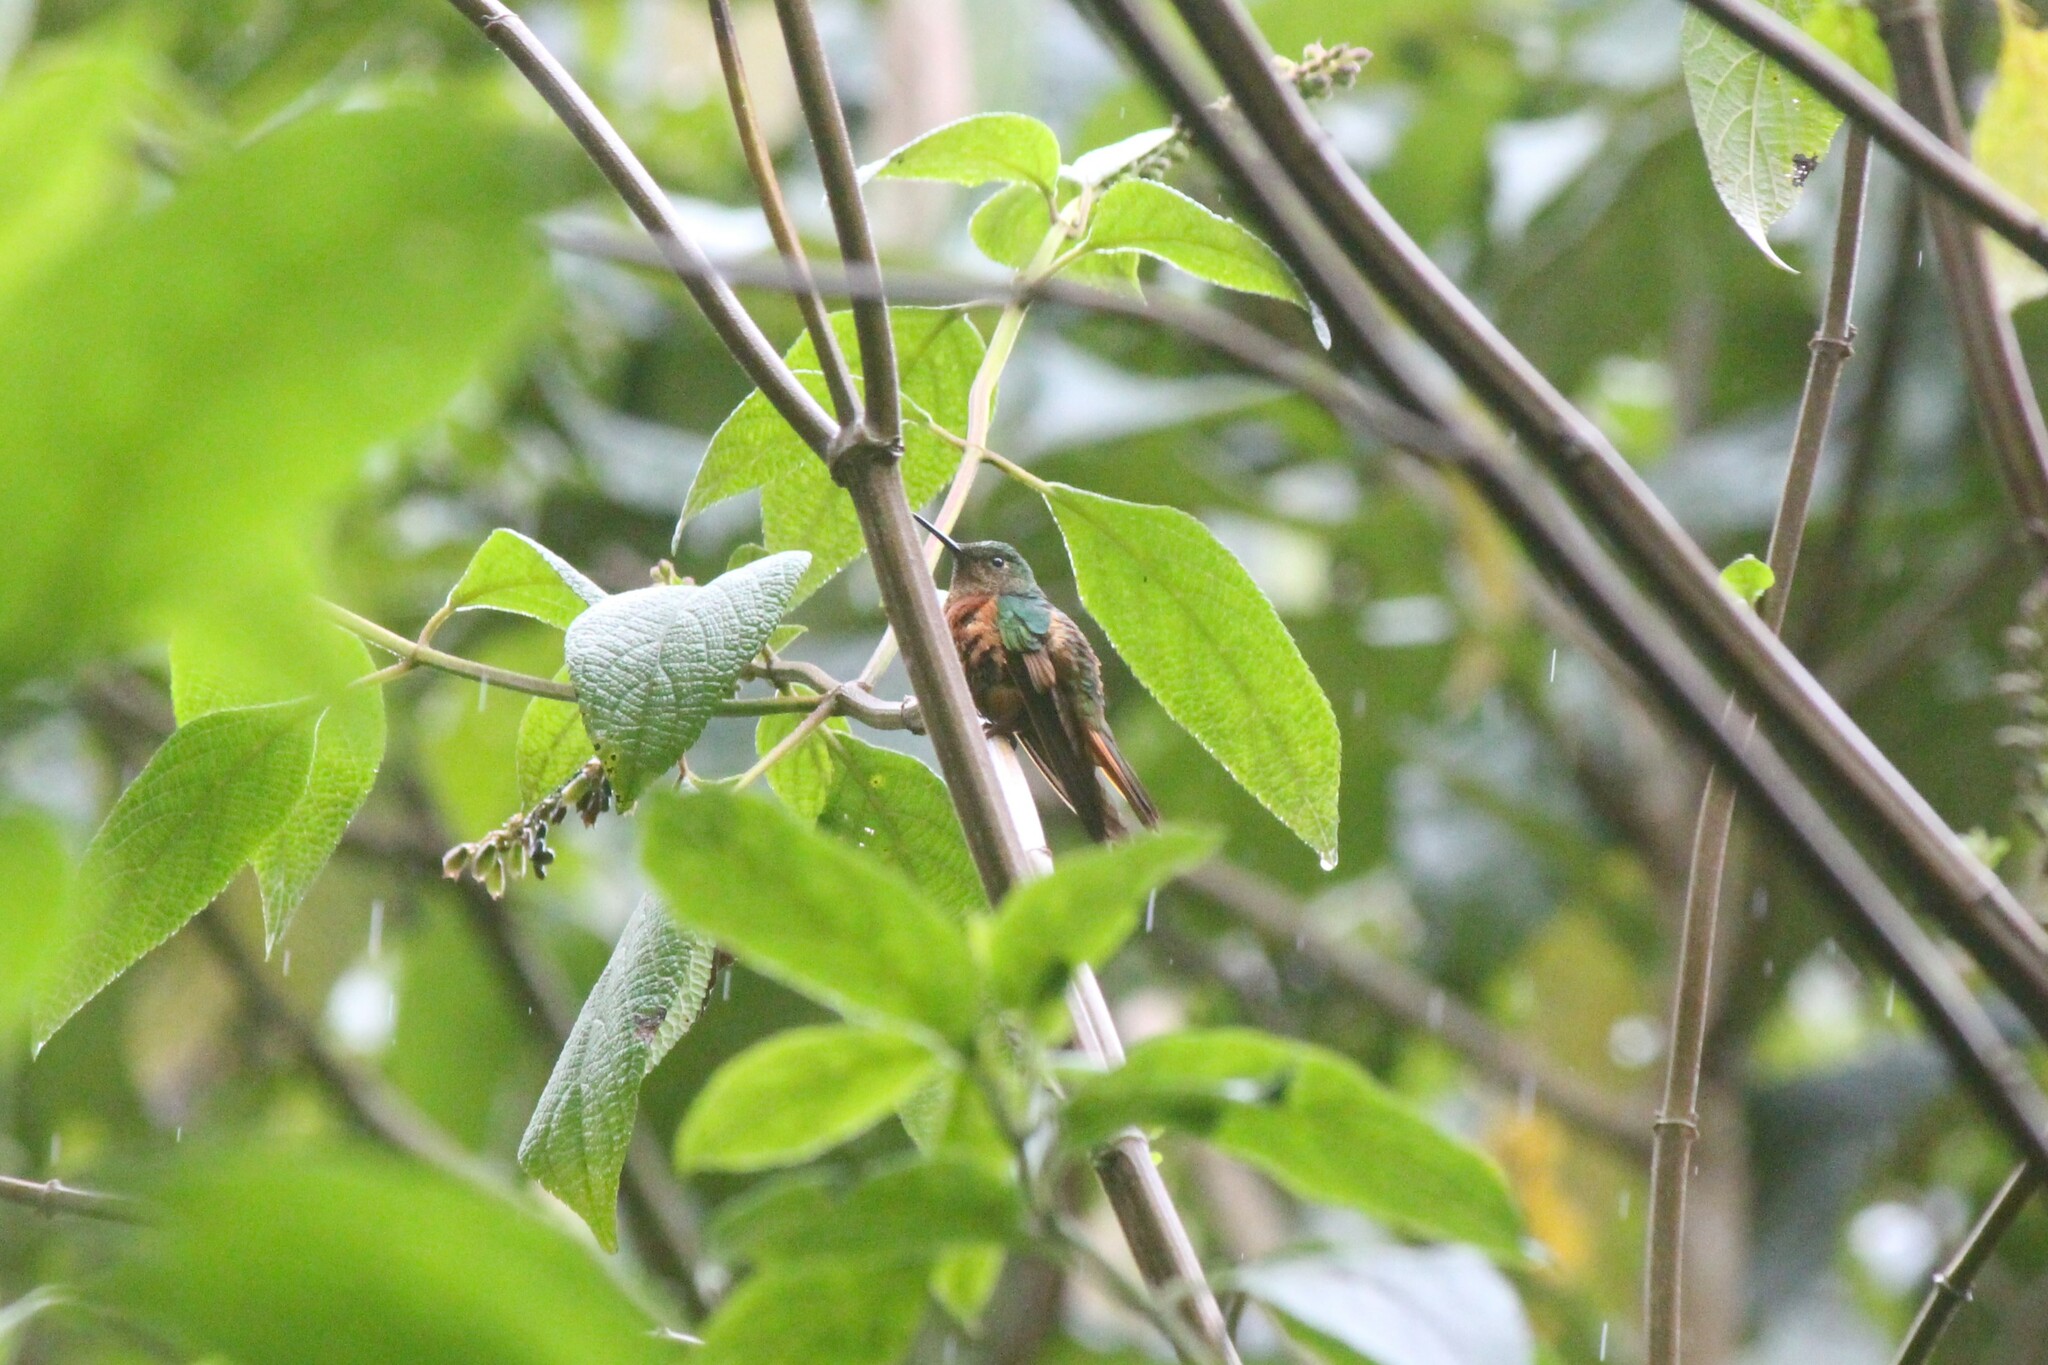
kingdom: Animalia
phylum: Chordata
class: Aves
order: Apodiformes
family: Trochilidae
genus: Boissonneaua
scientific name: Boissonneaua matthewsii
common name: Chestnut-breasted coronet
